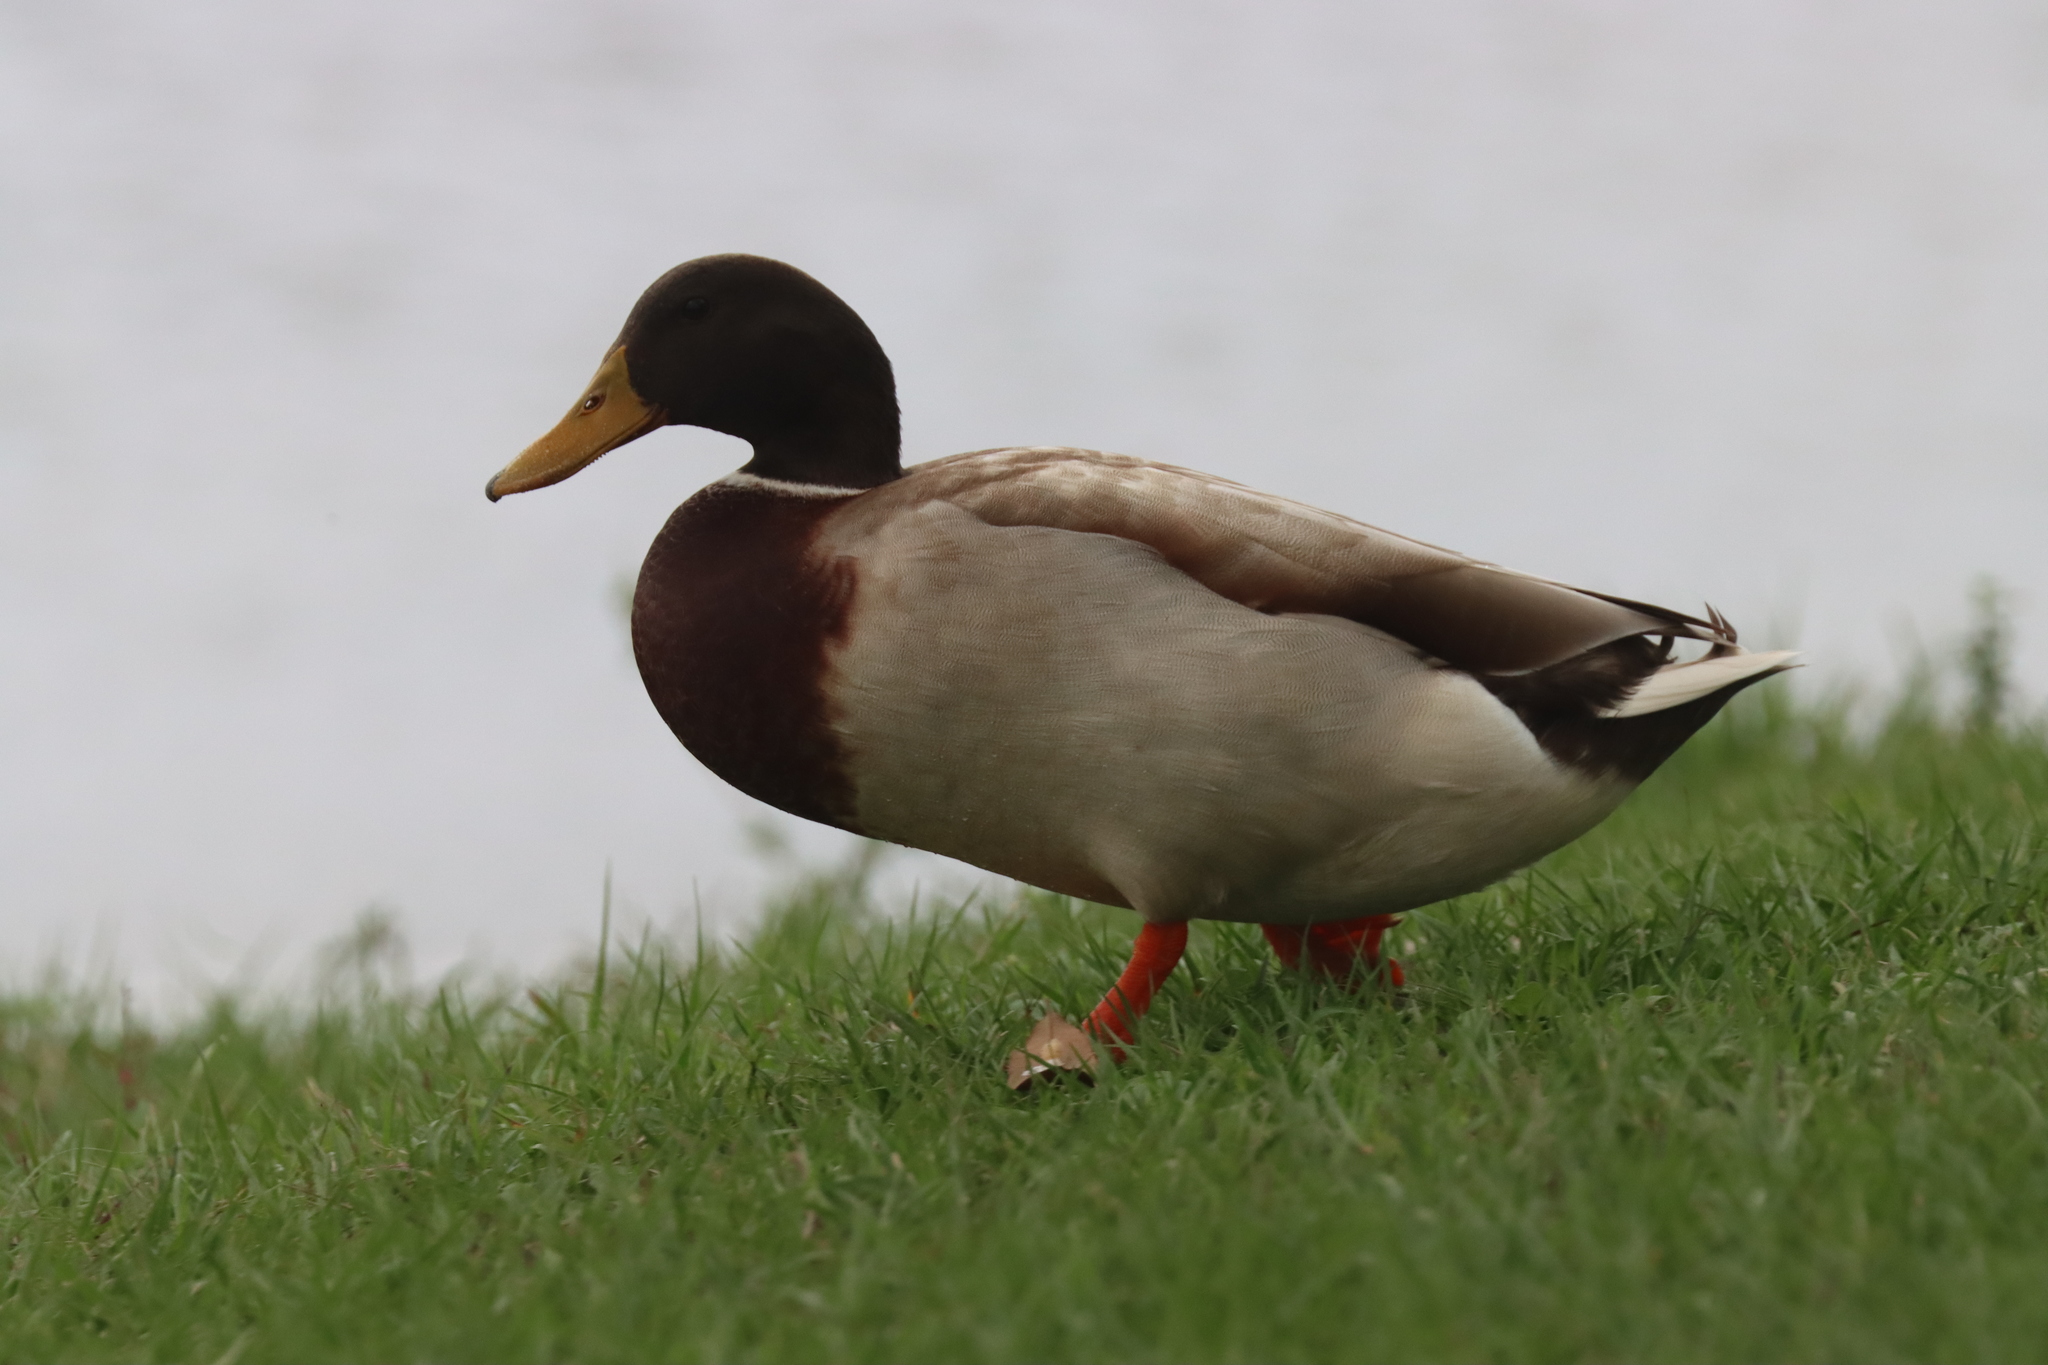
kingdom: Animalia
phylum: Chordata
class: Aves
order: Anseriformes
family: Anatidae
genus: Anas
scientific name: Anas platyrhynchos
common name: Mallard
